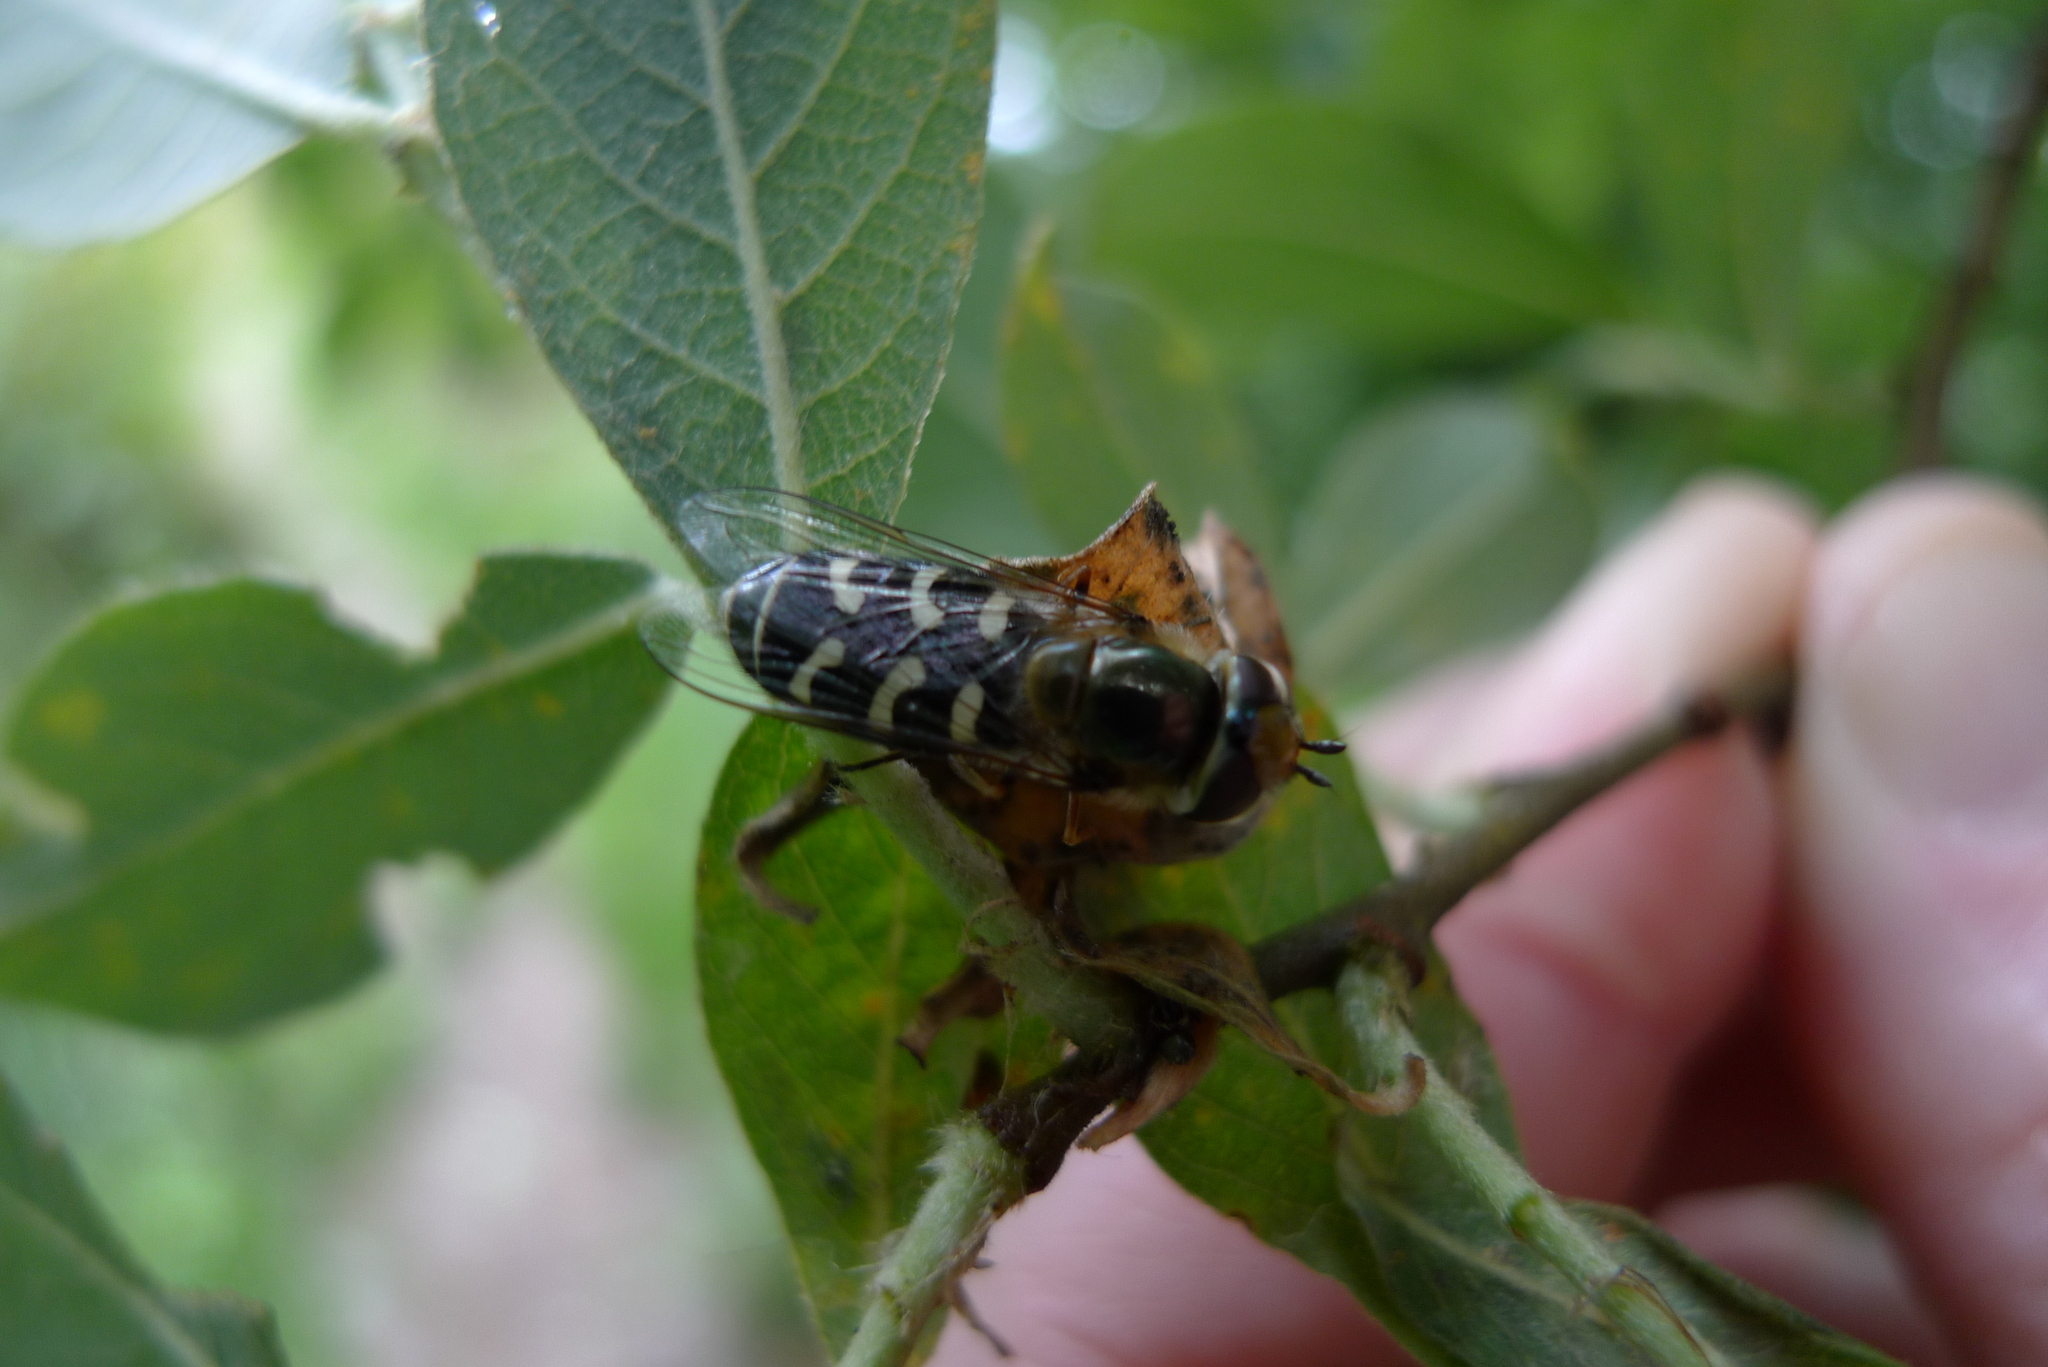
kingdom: Animalia
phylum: Arthropoda
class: Insecta
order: Diptera
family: Syrphidae
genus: Scaeva
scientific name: Scaeva pyrastri
